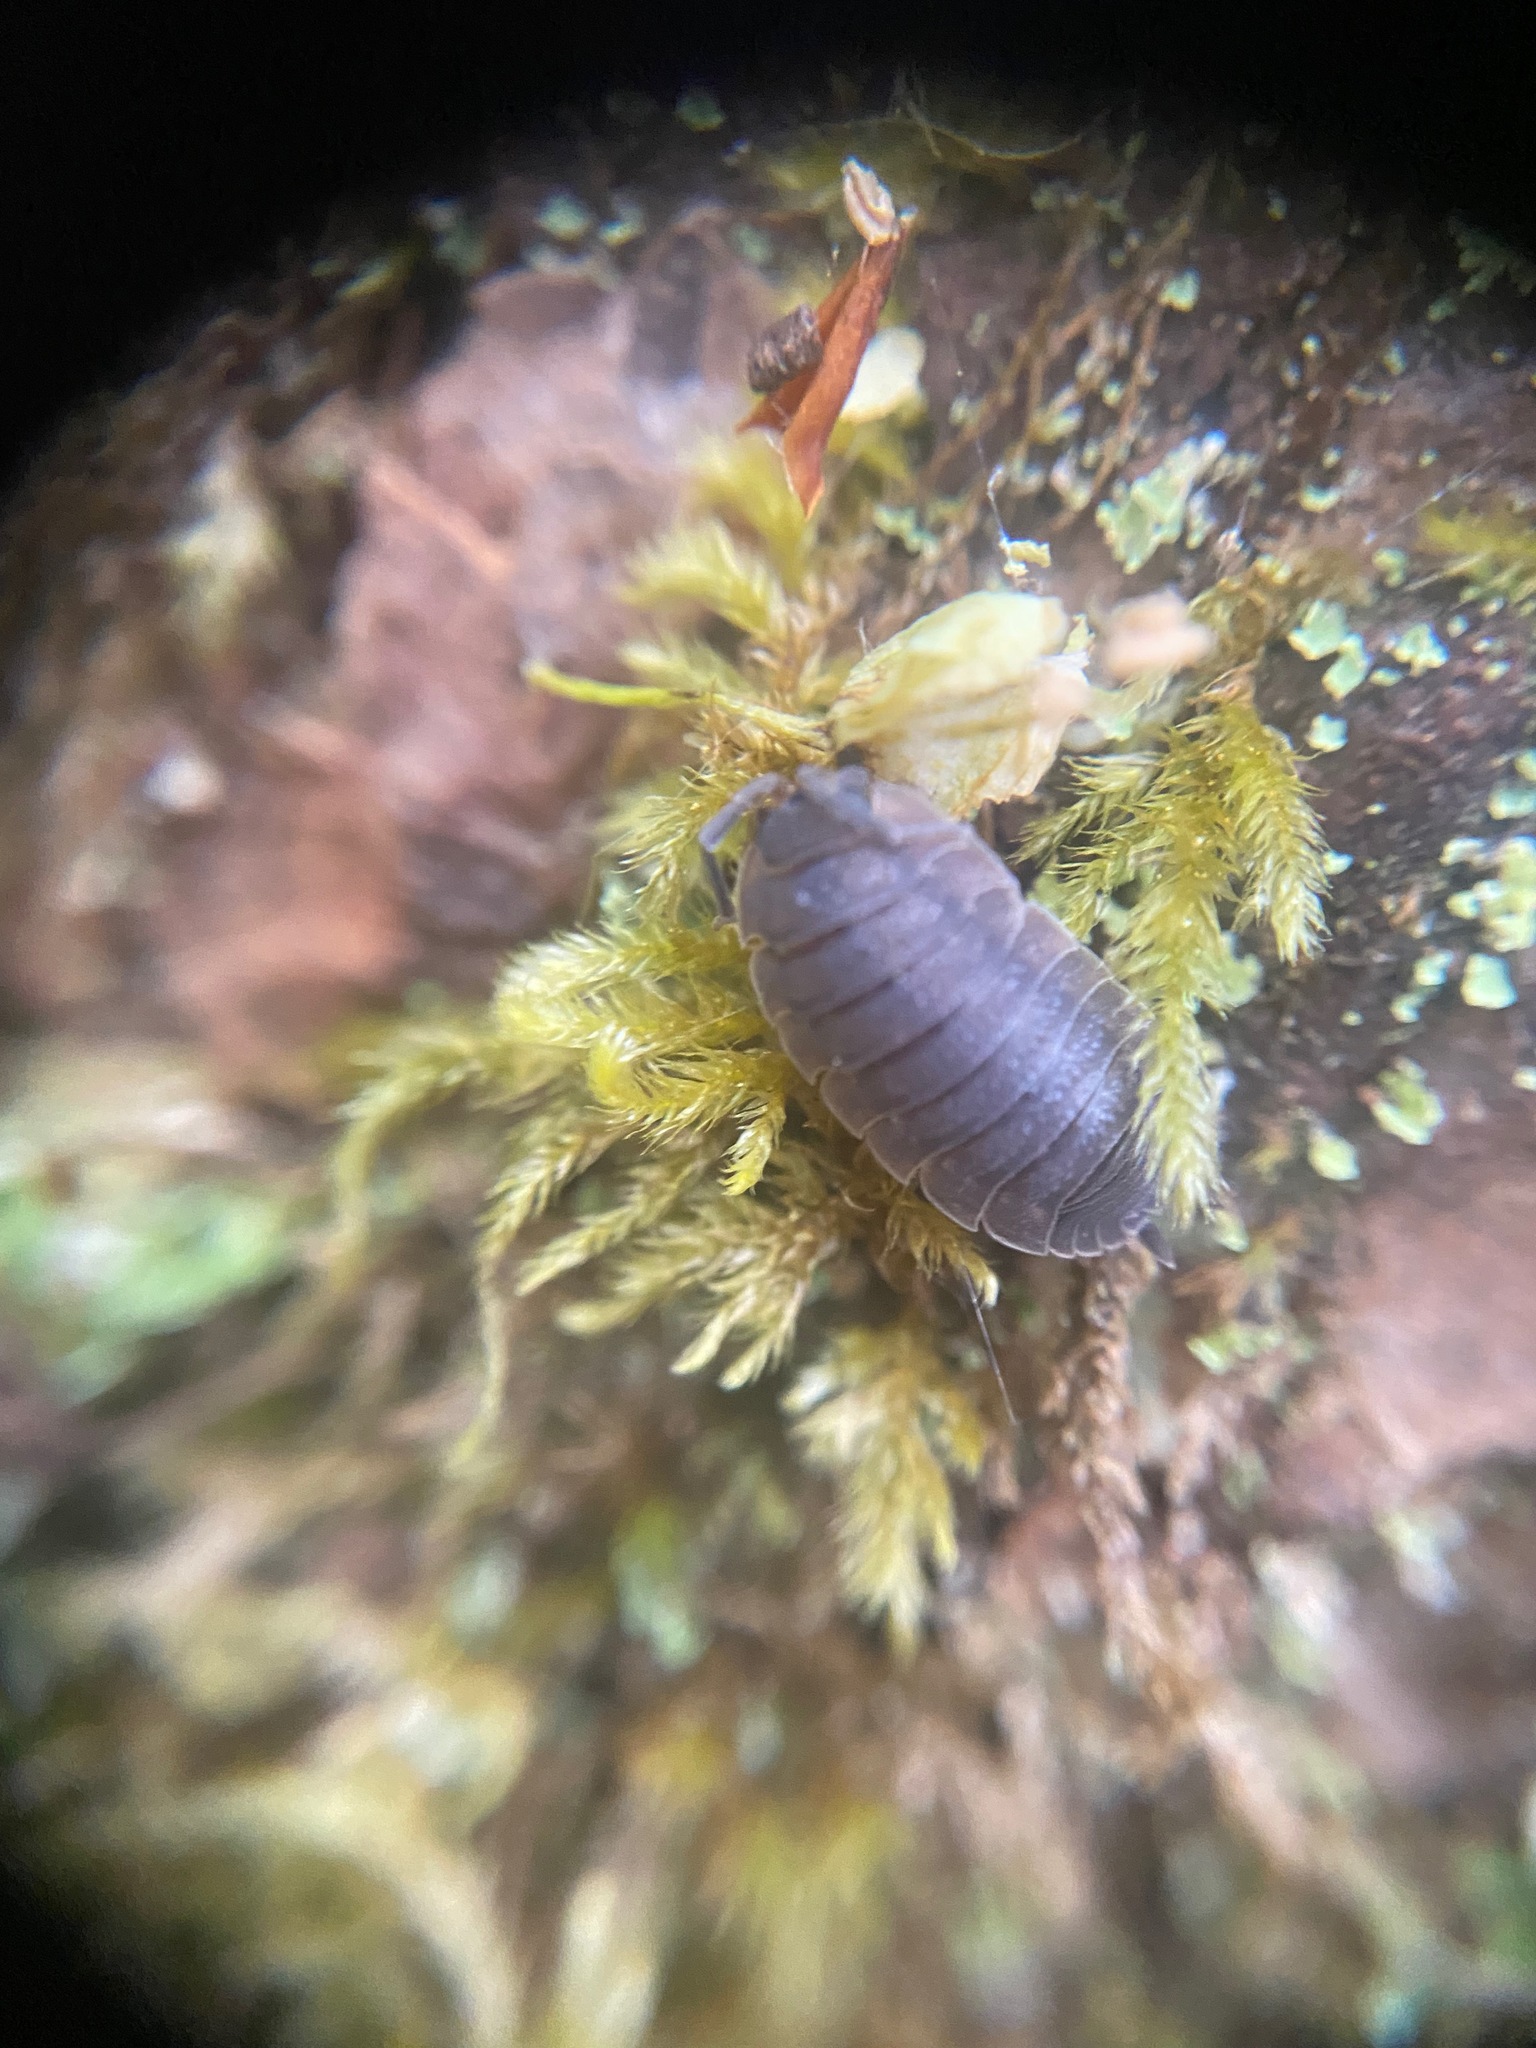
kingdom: Animalia
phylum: Arthropoda
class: Malacostraca
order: Isopoda
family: Porcellionidae
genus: Porcellio
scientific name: Porcellio scaber
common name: Common rough woodlouse
